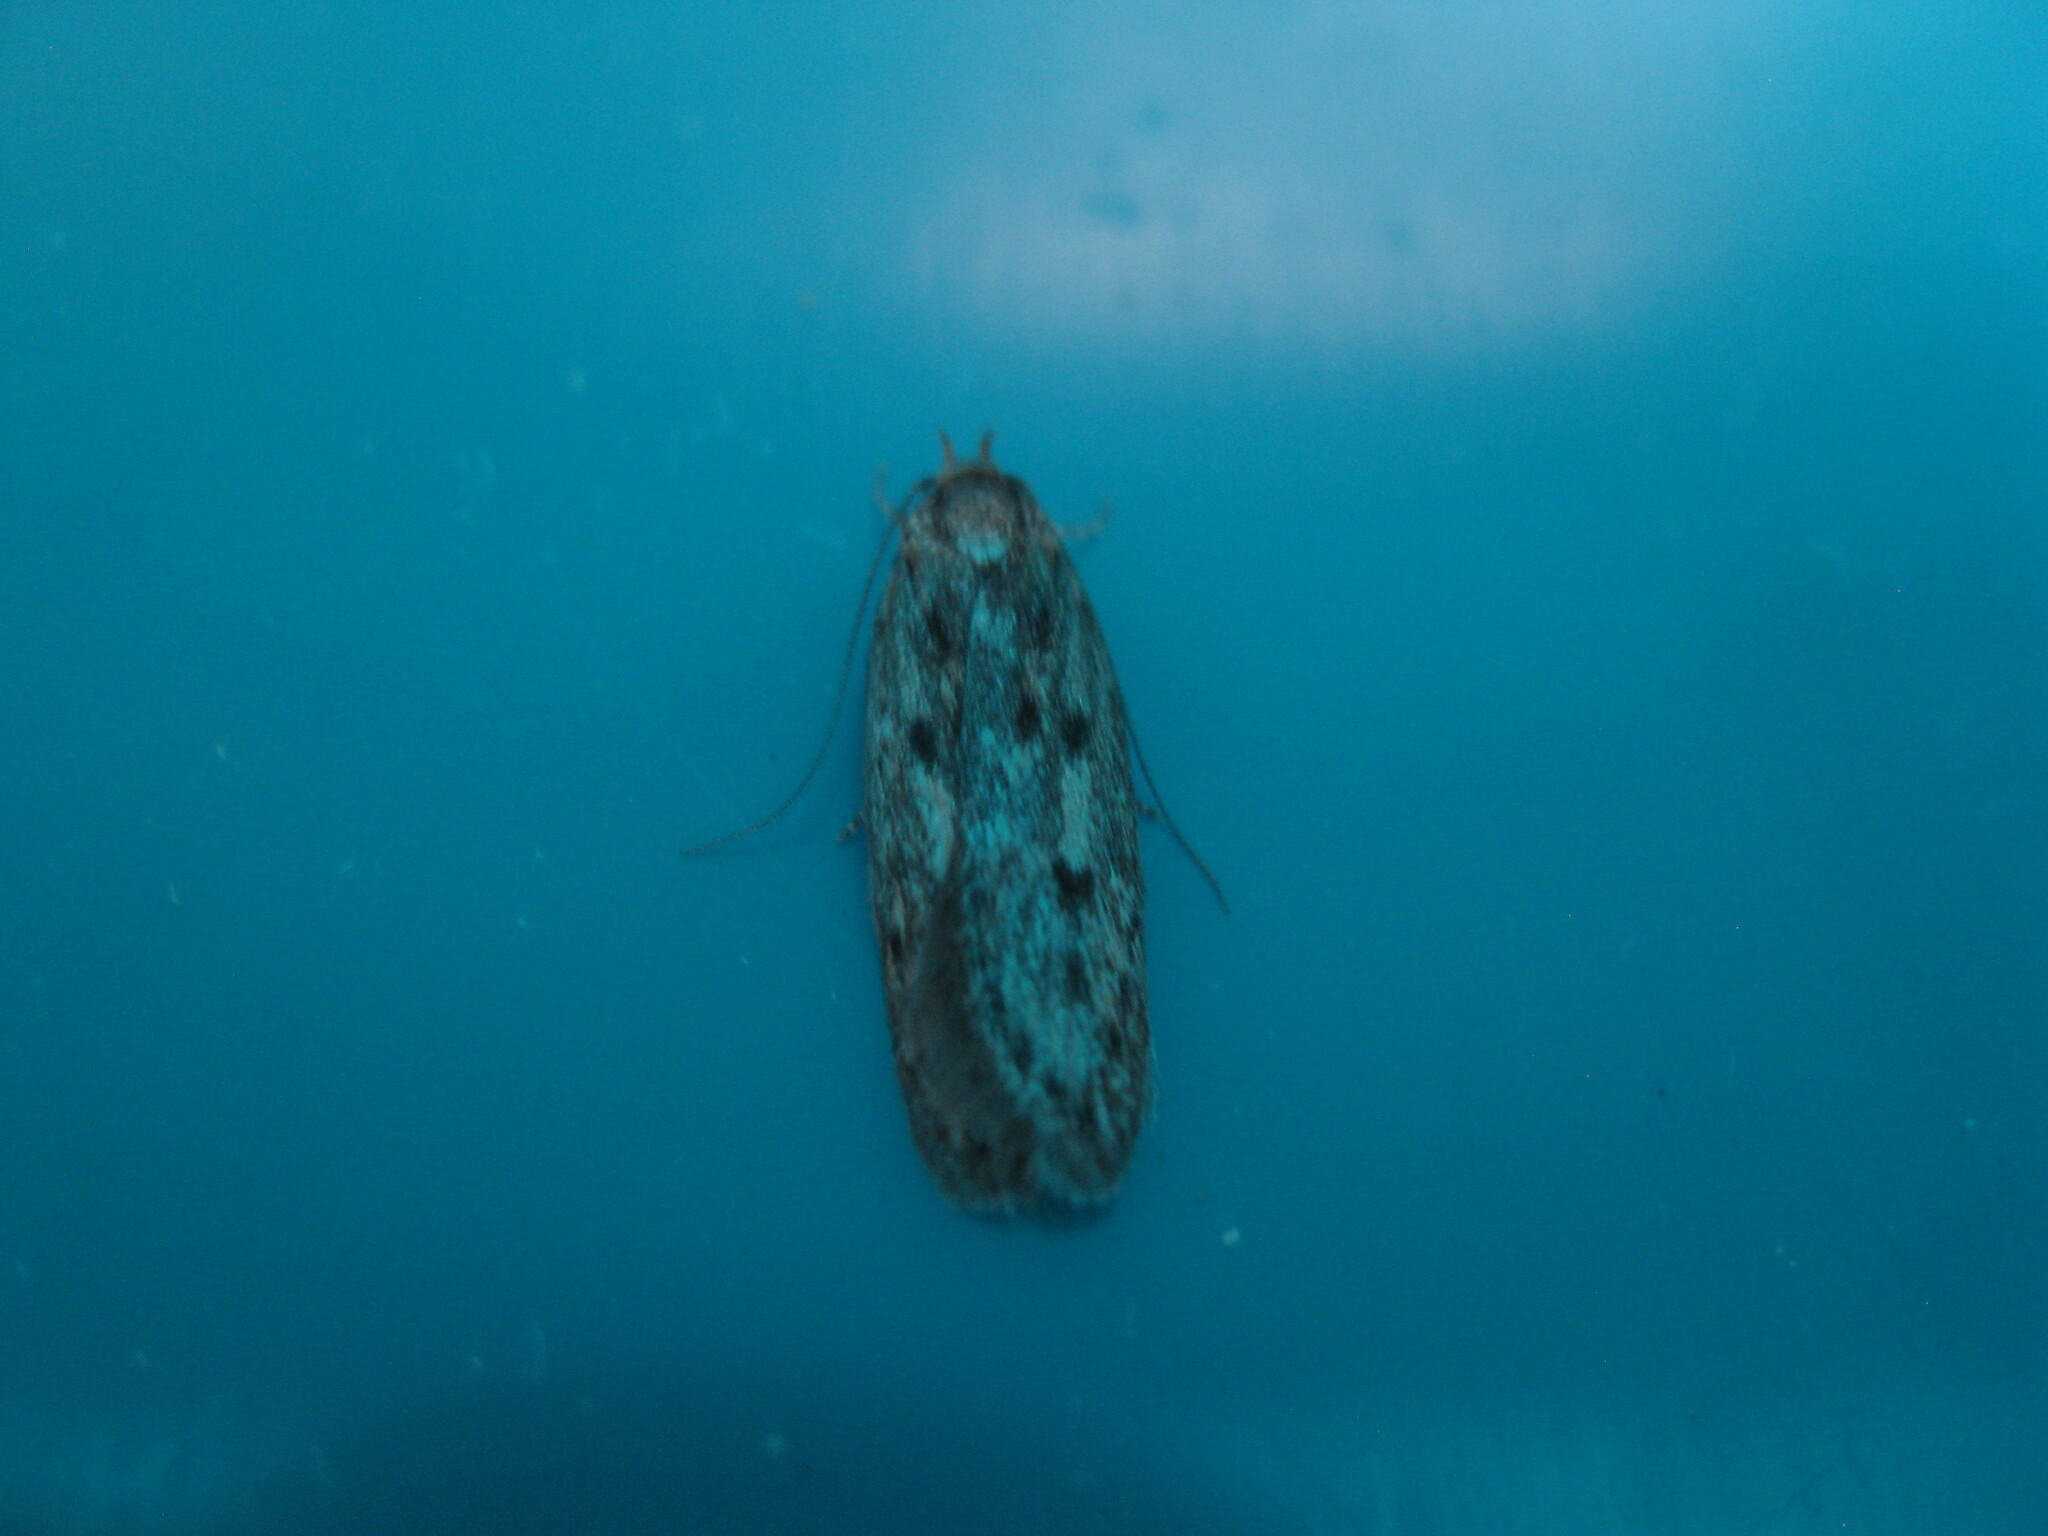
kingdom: Animalia
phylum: Arthropoda
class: Insecta
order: Lepidoptera
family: Oecophoridae
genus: Hofmannophila
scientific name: Hofmannophila pseudospretella
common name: Brown house moth
